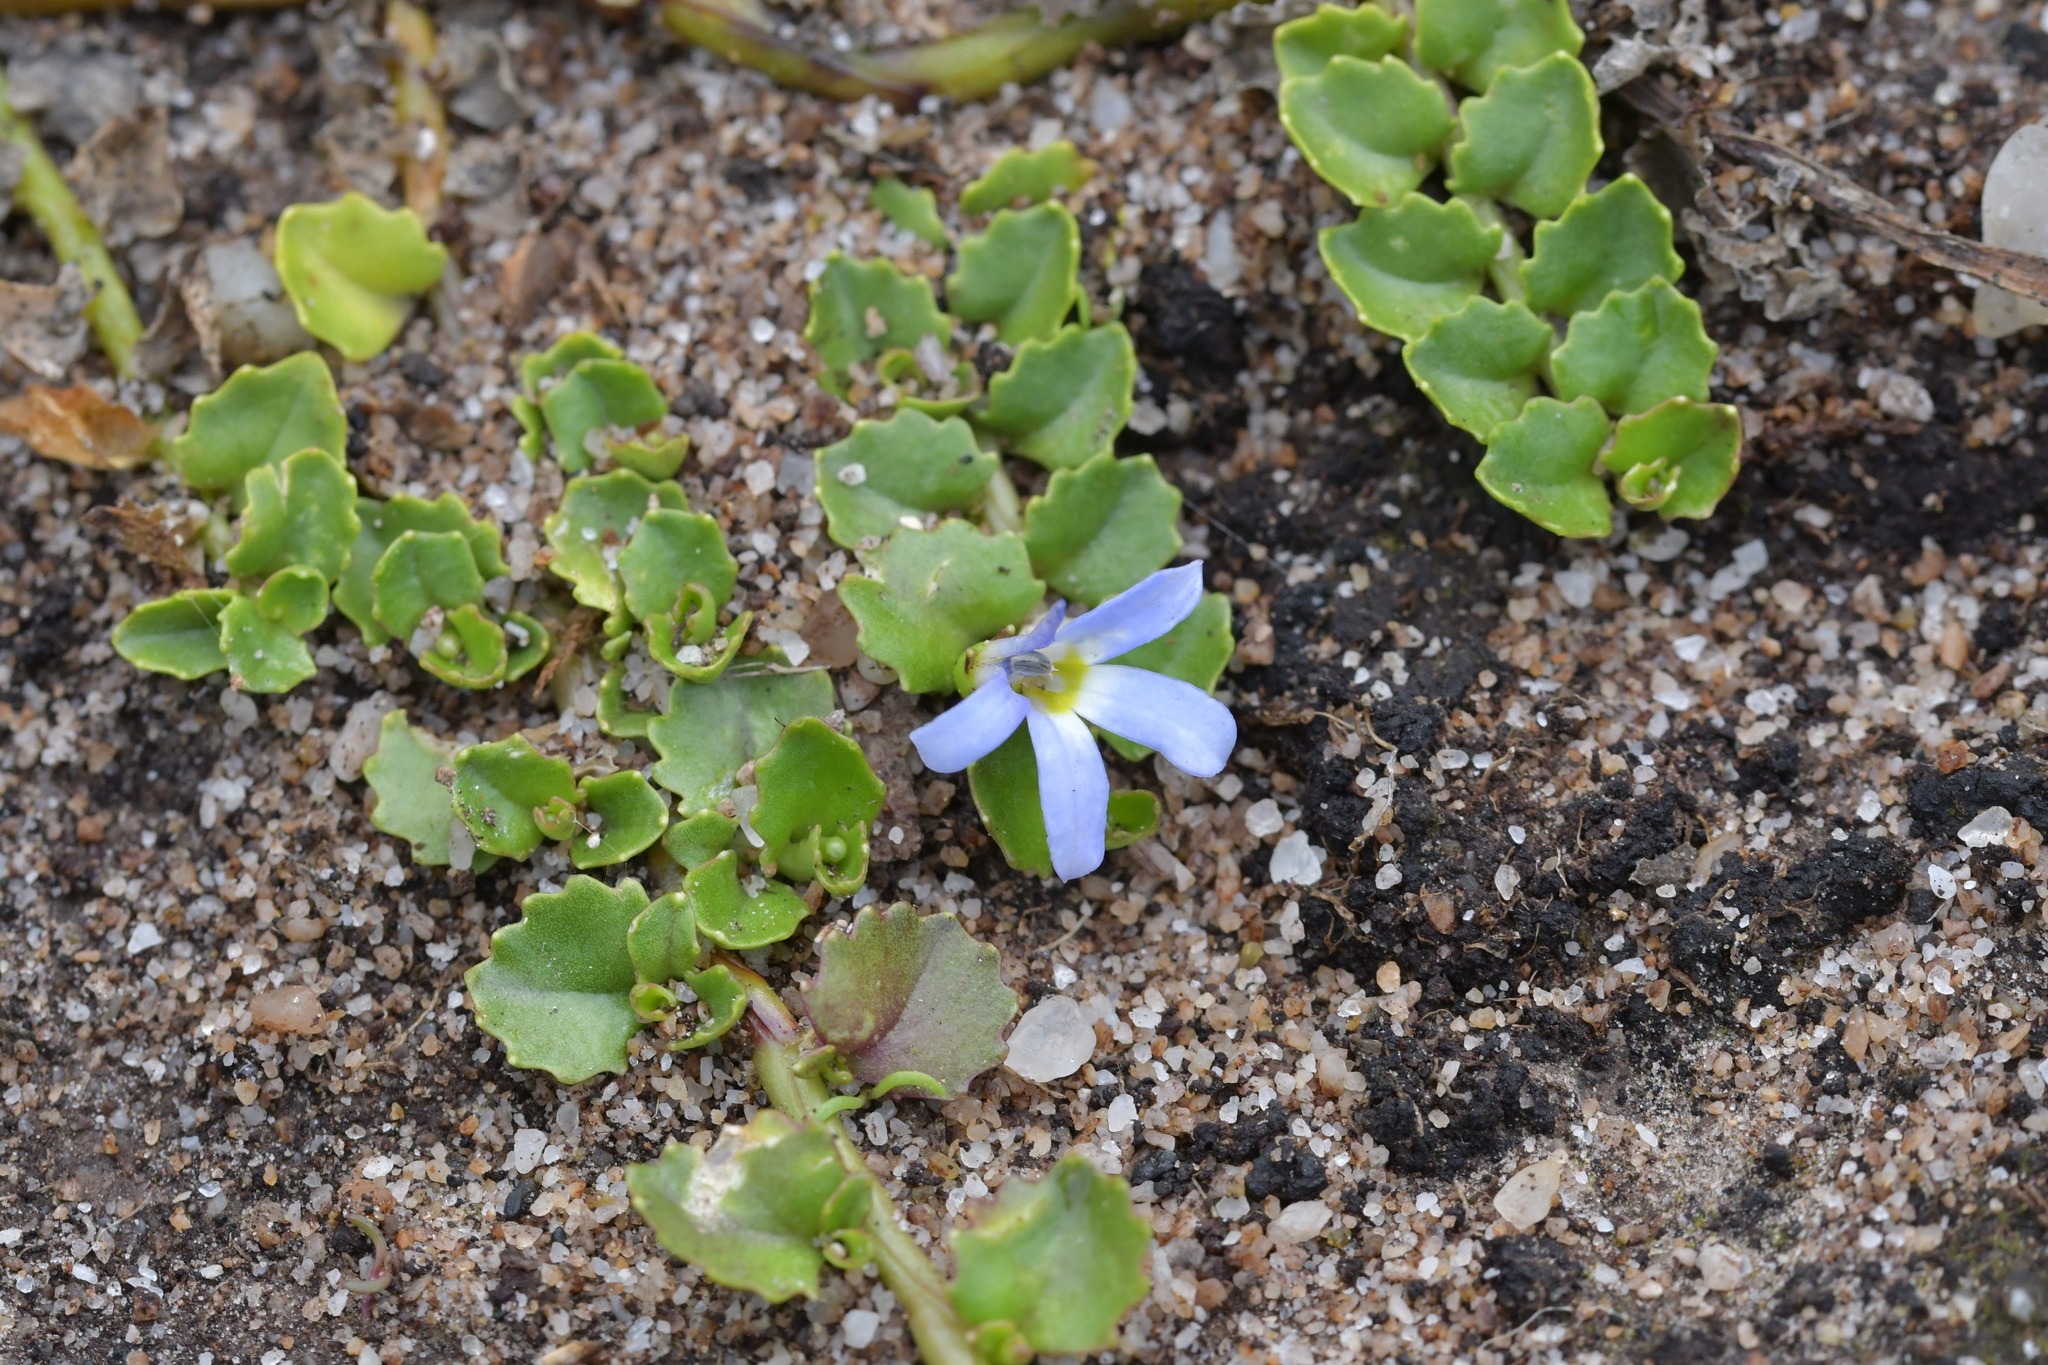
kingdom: Plantae
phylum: Tracheophyta
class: Magnoliopsida
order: Asterales
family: Campanulaceae
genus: Lobelia
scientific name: Lobelia arenaria
